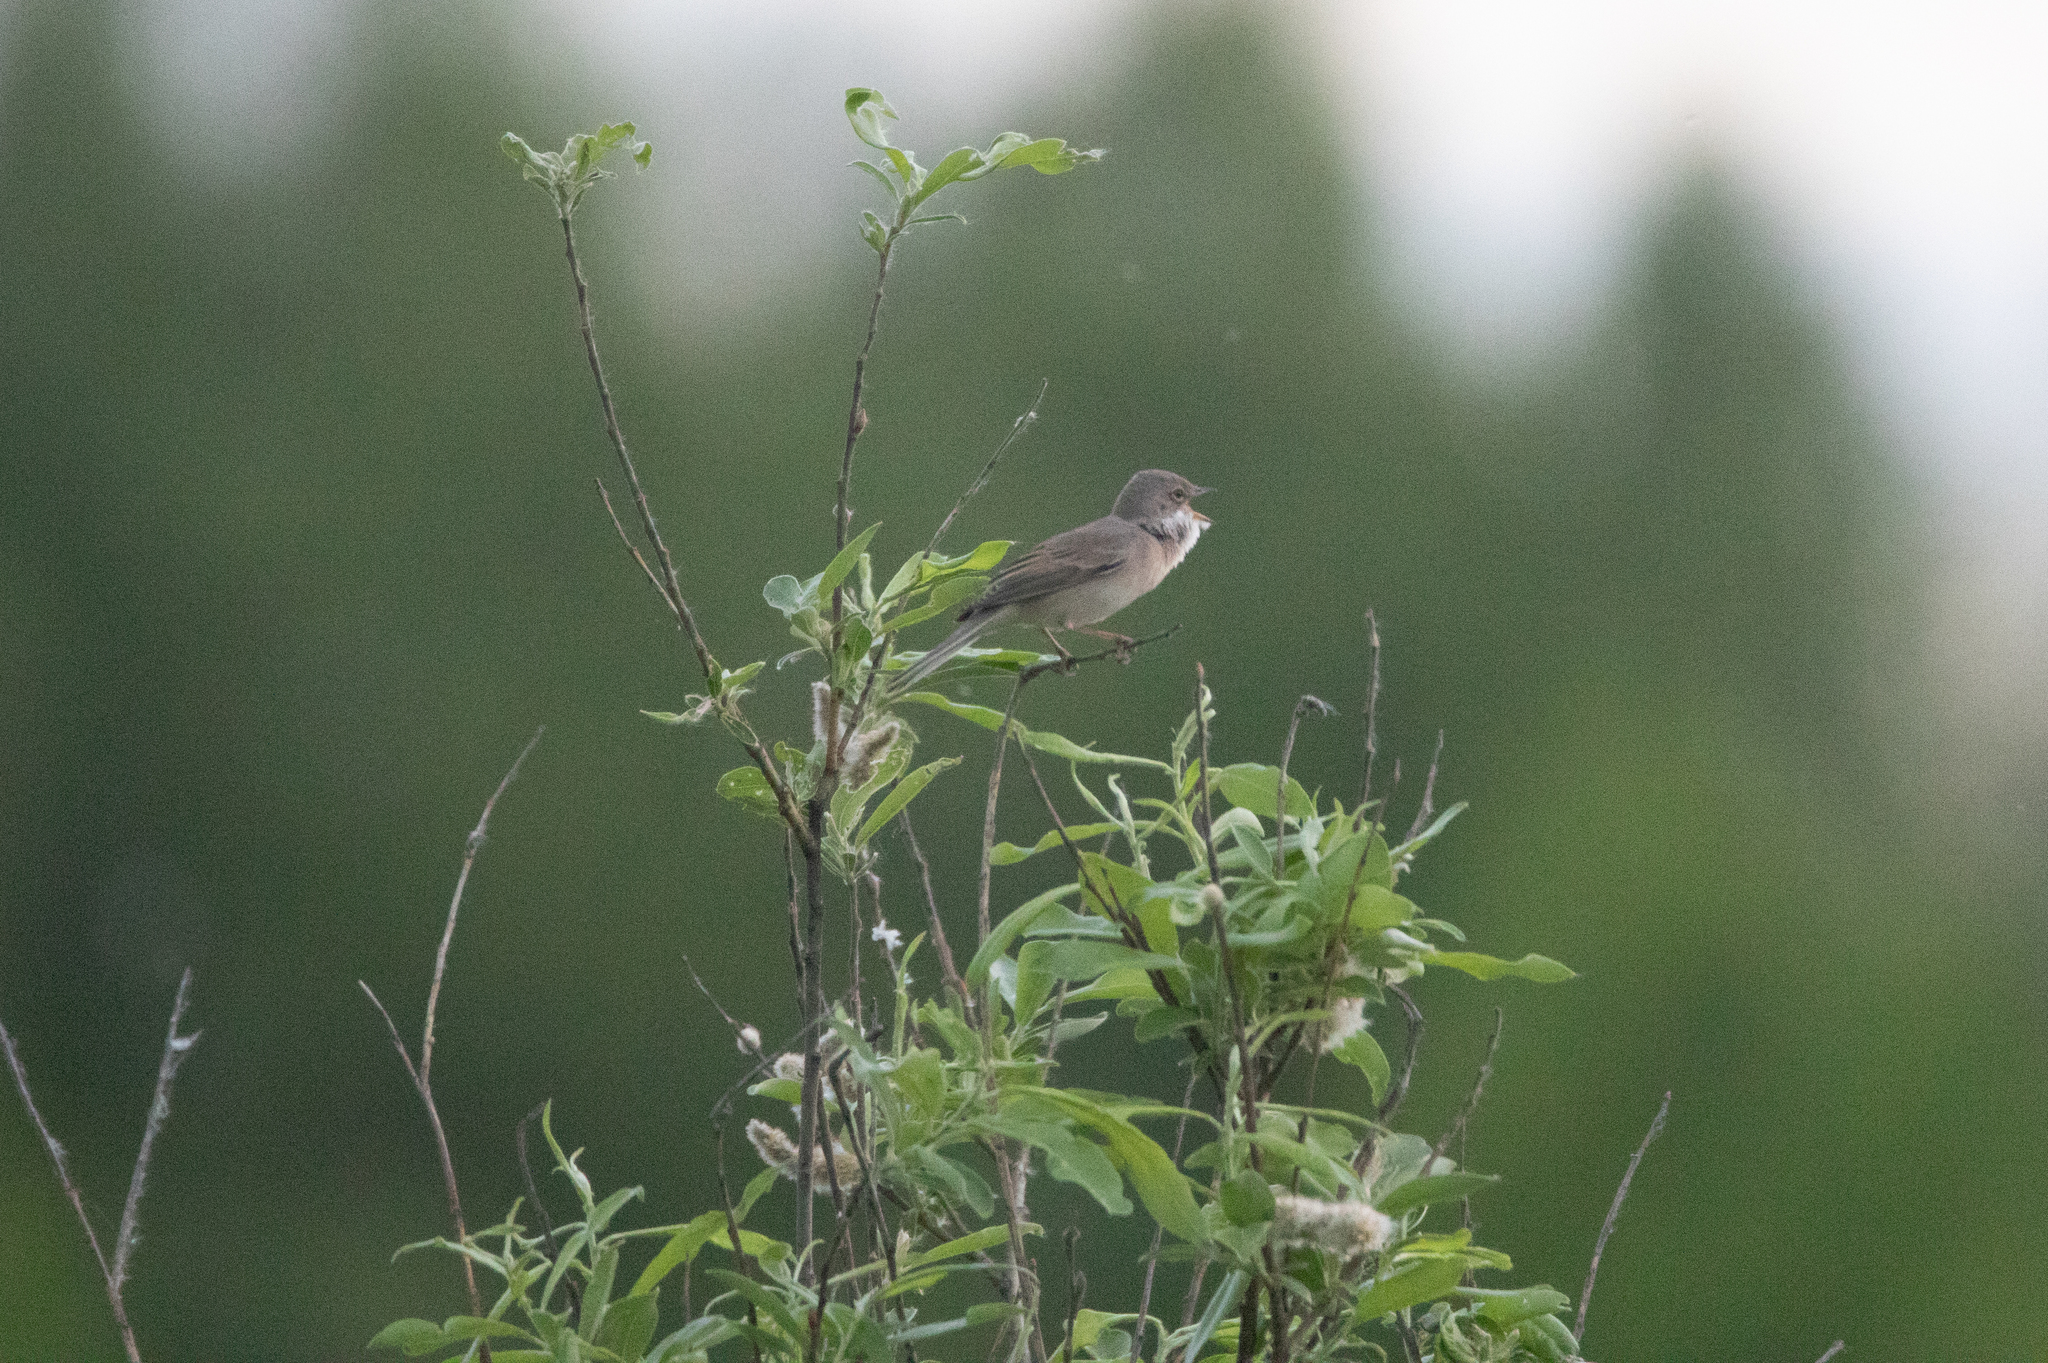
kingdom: Animalia
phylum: Chordata
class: Aves
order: Passeriformes
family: Sylviidae
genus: Sylvia
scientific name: Sylvia communis
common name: Common whitethroat
